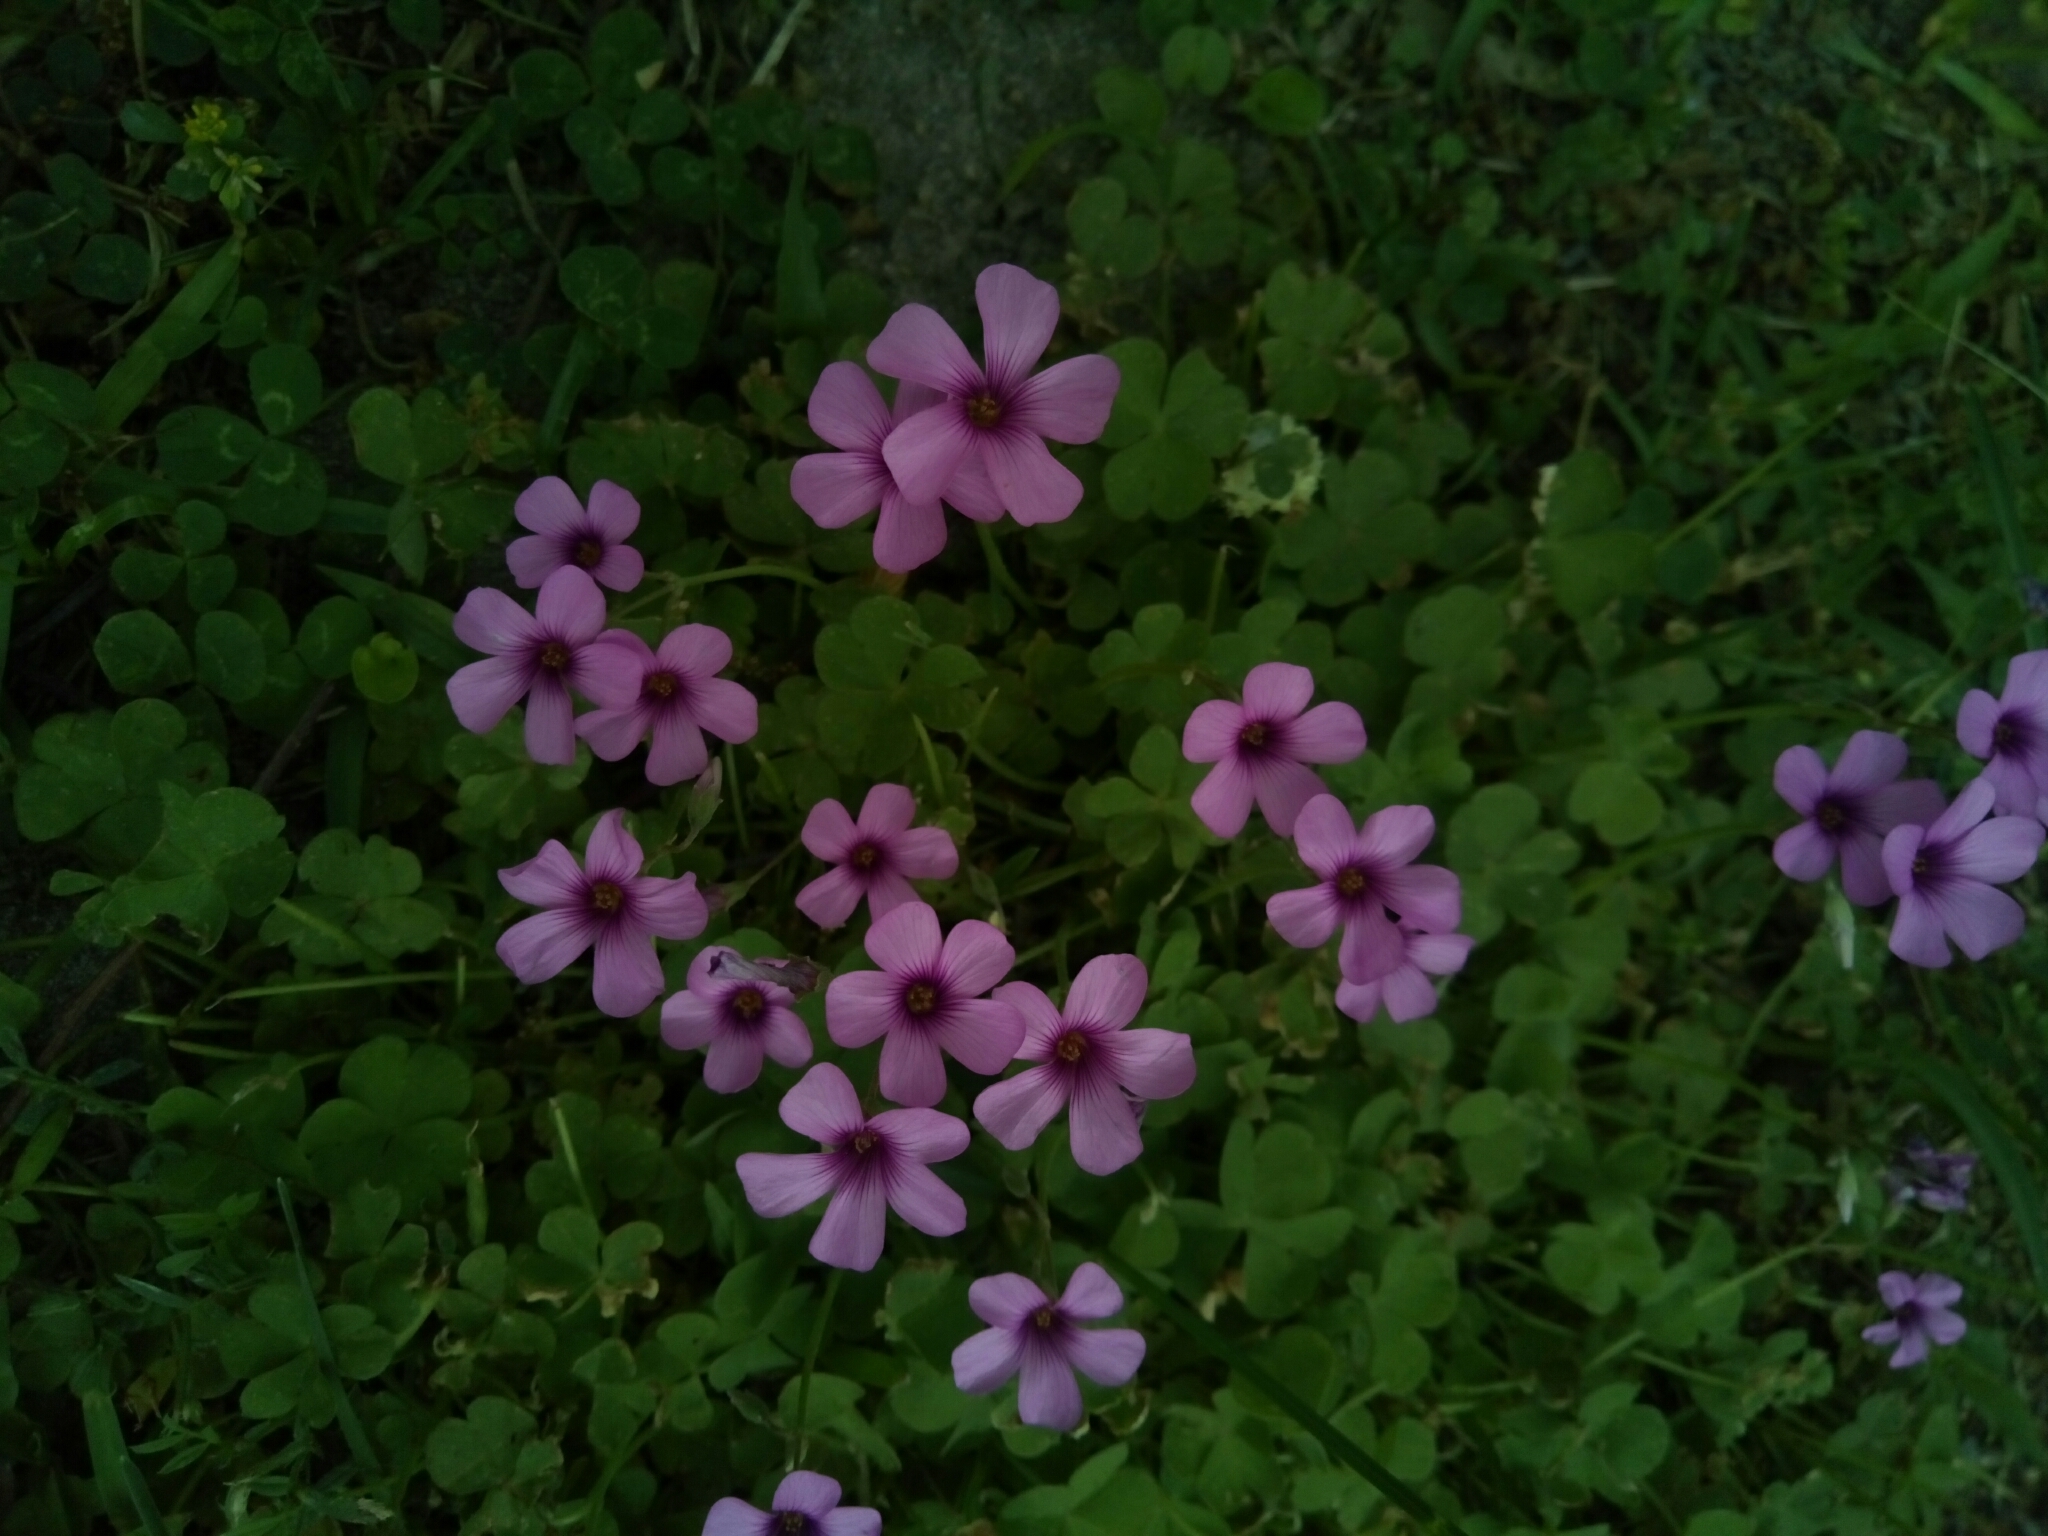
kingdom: Plantae
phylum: Tracheophyta
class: Magnoliopsida
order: Oxalidales
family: Oxalidaceae
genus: Oxalis
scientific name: Oxalis articulata
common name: Pink-sorrel
